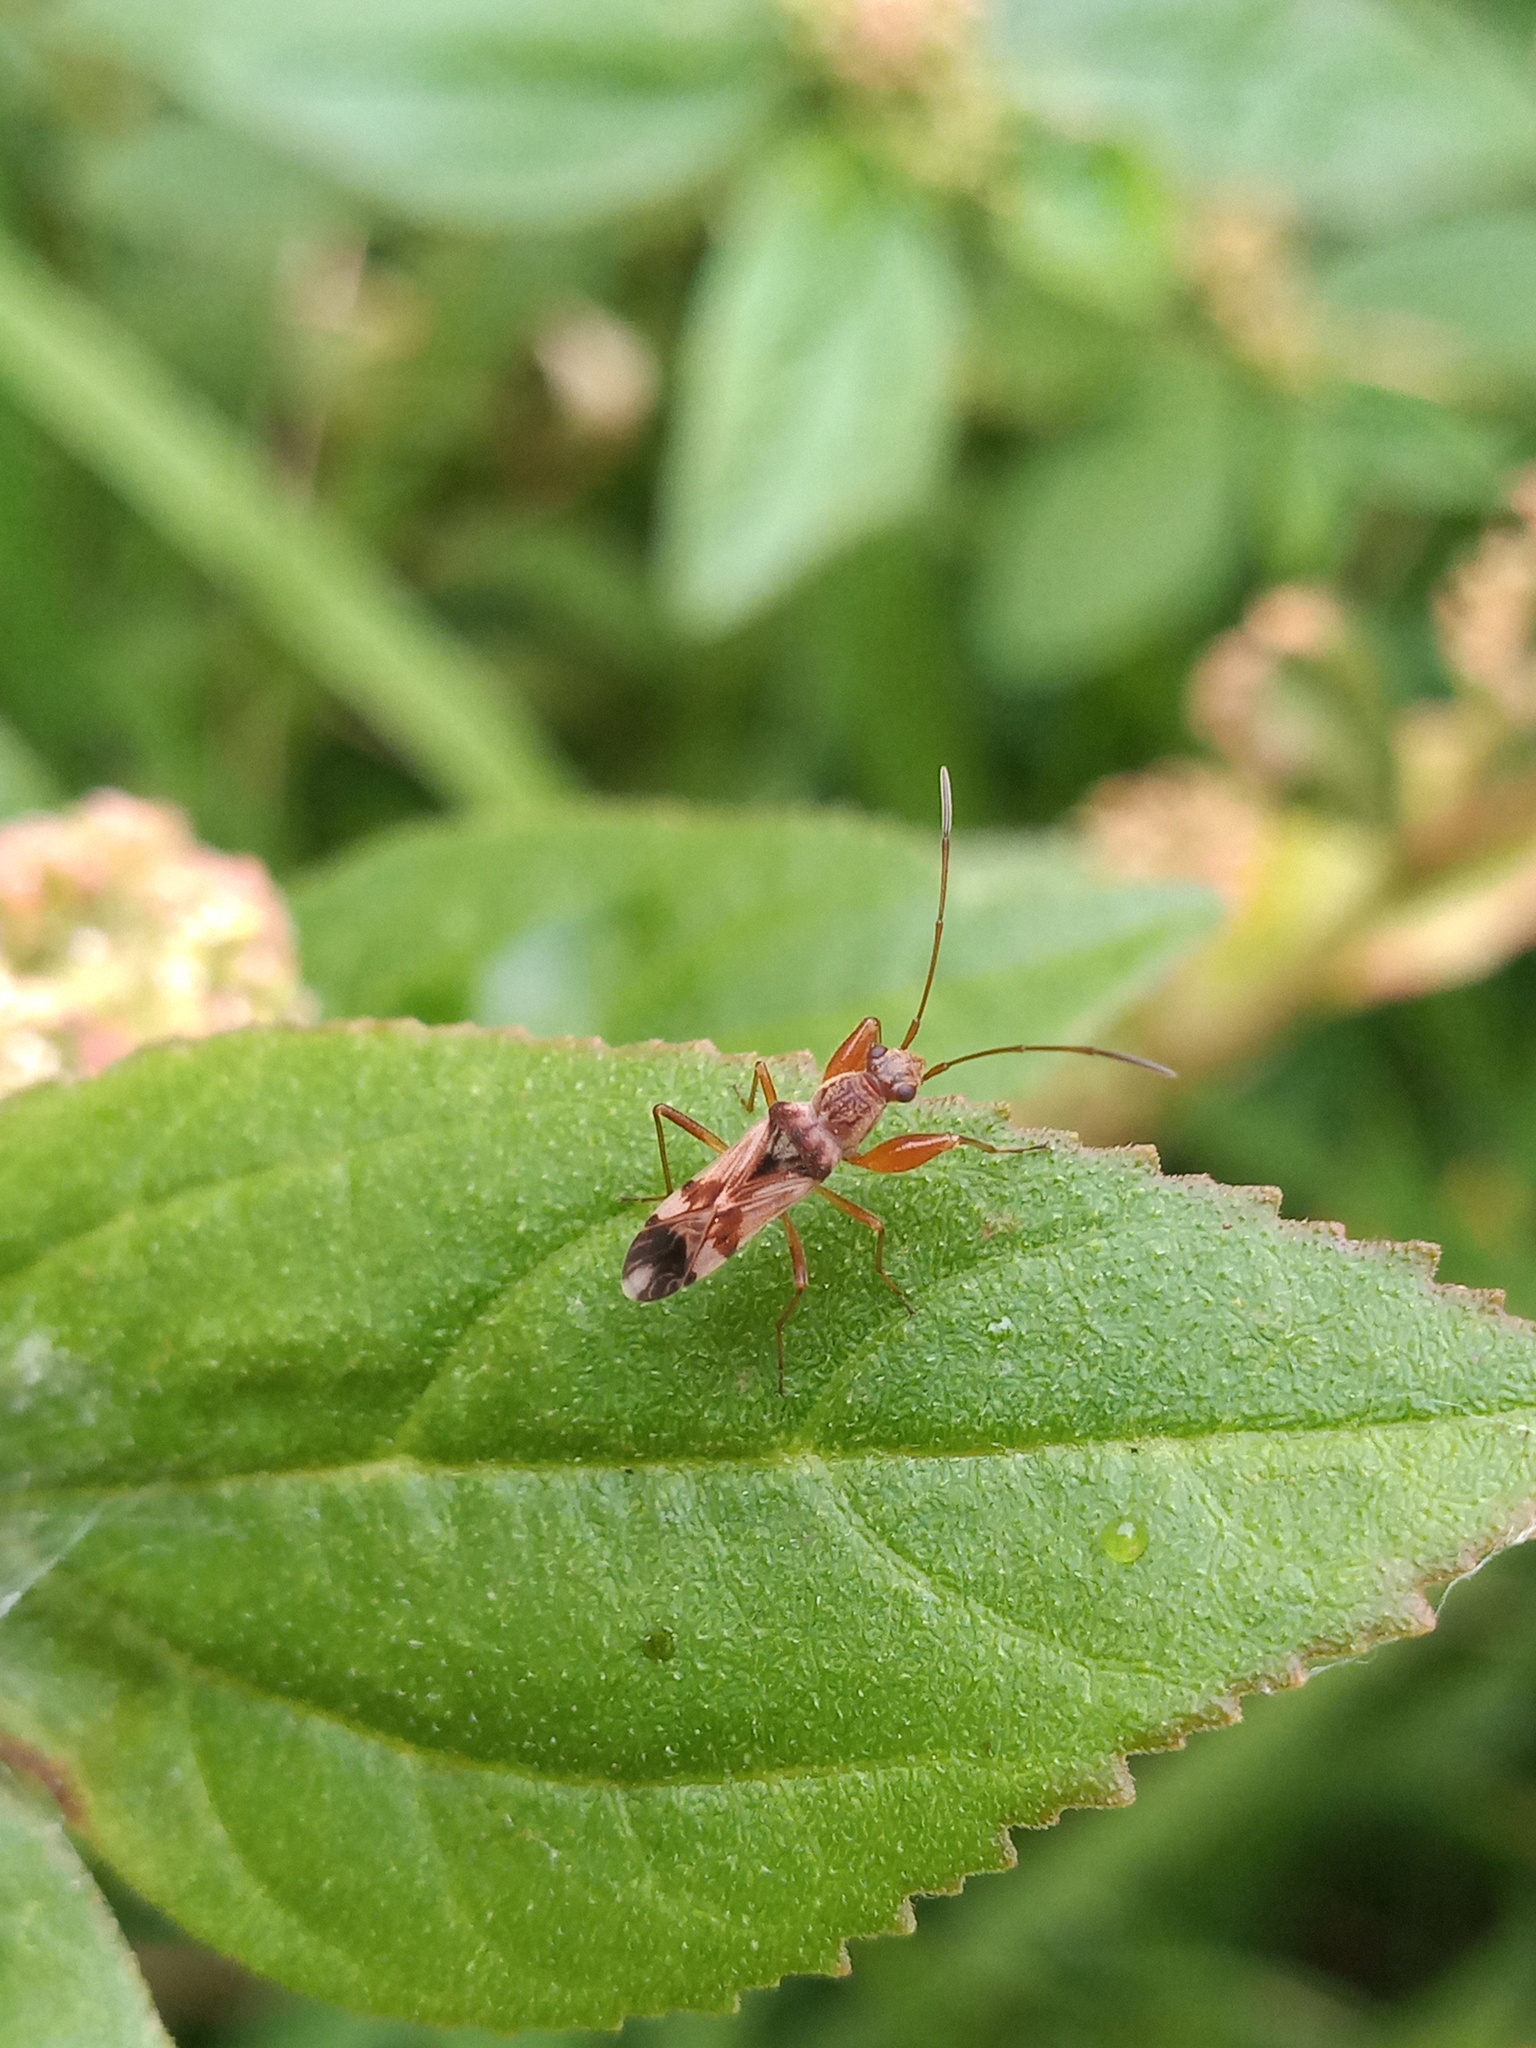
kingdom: Animalia
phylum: Arthropoda
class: Insecta
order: Hemiptera
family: Rhyparochromidae
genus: Neopamera
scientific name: Neopamera bilobata
